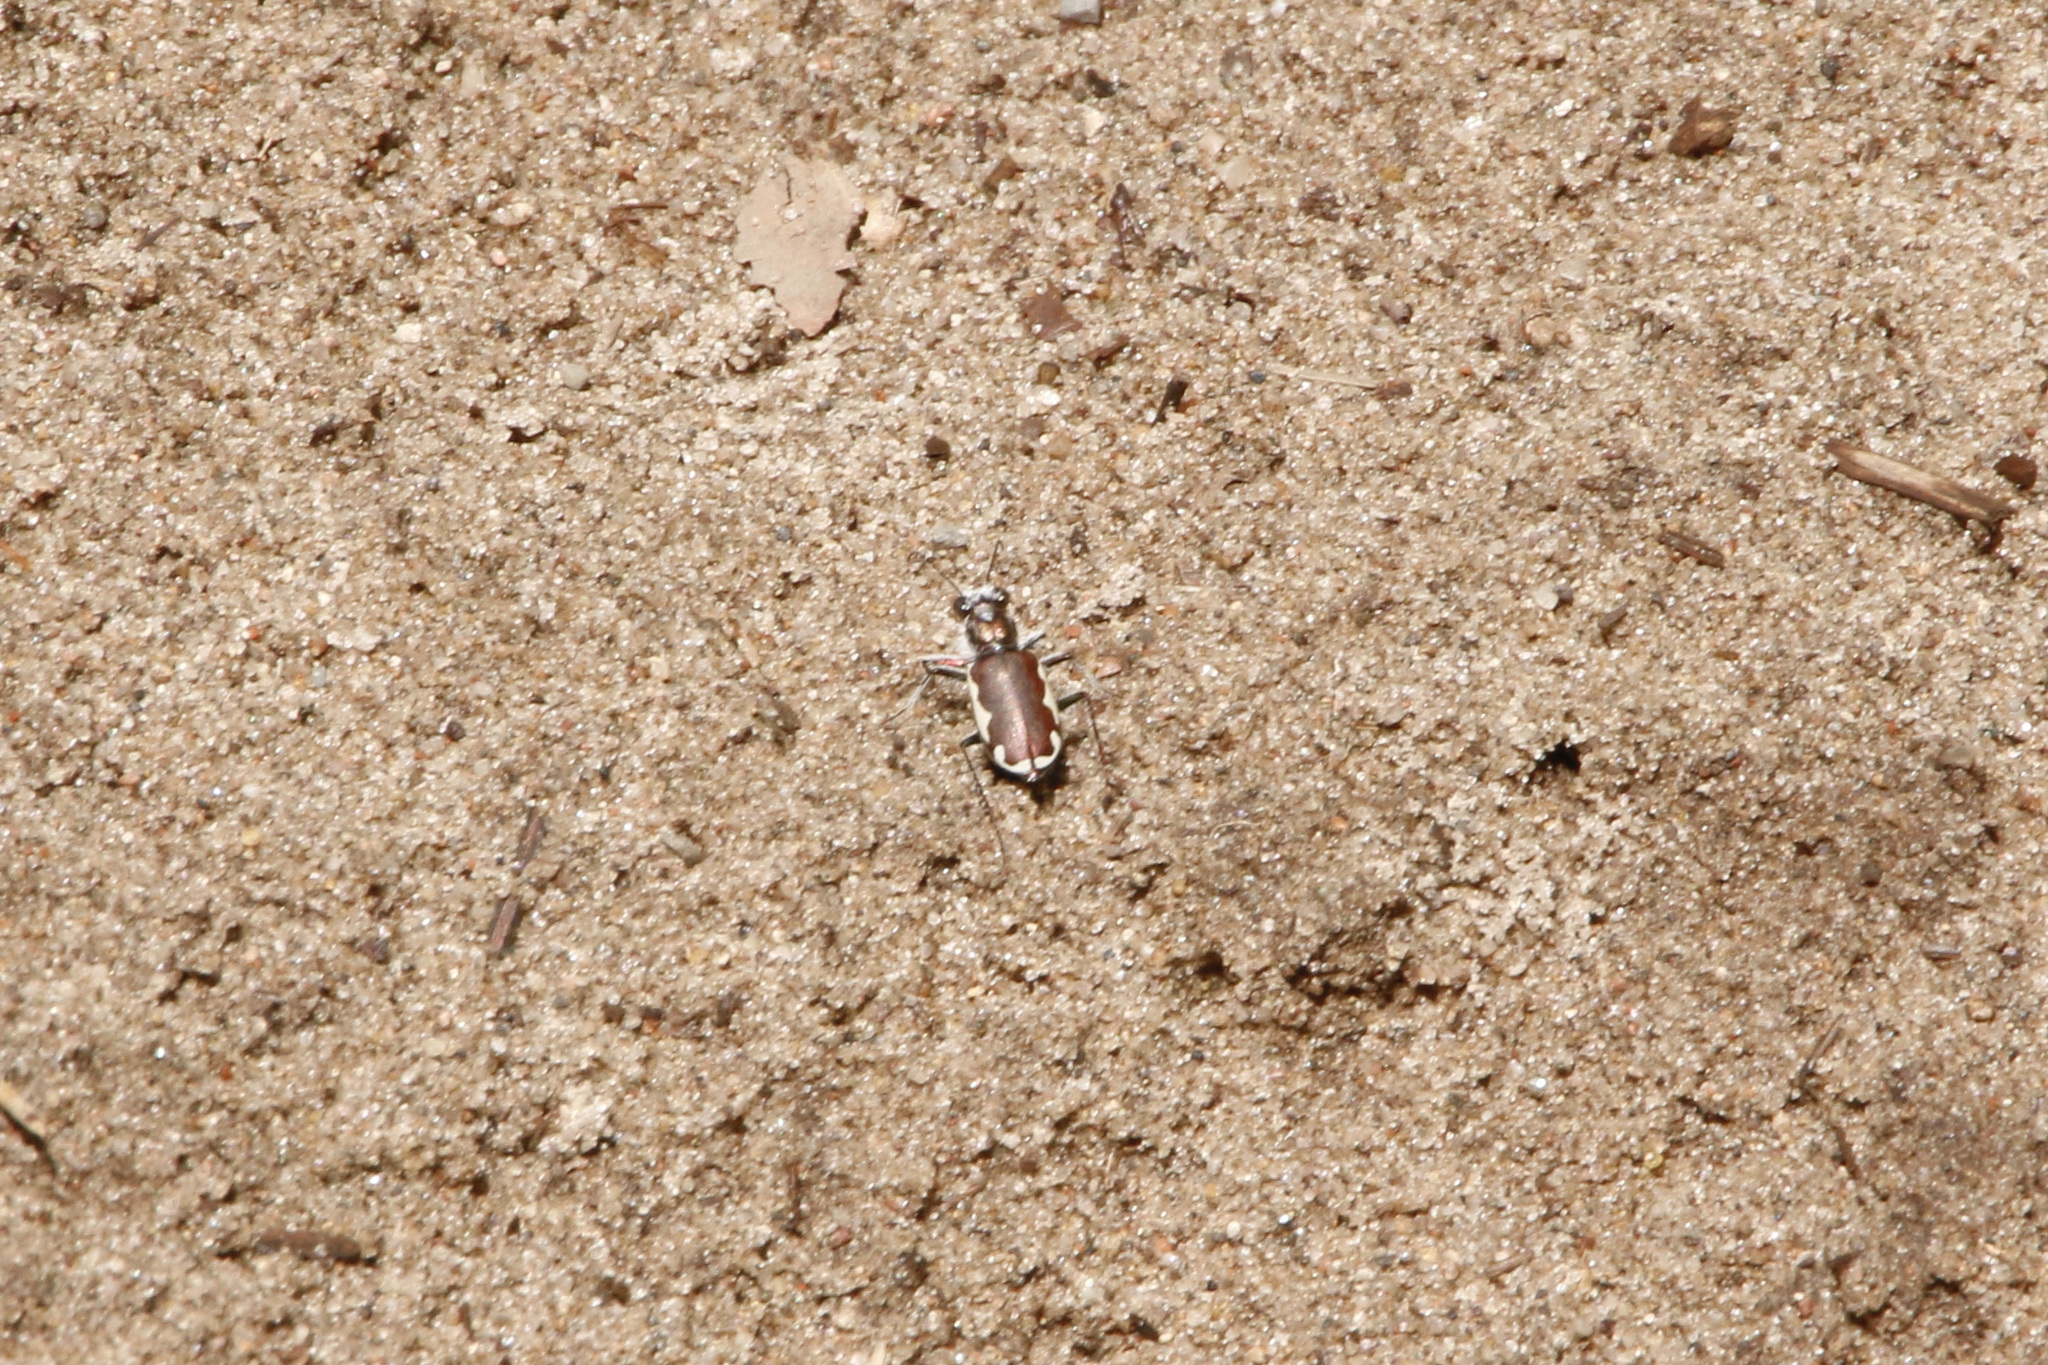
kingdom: Animalia
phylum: Arthropoda
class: Insecta
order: Coleoptera
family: Carabidae
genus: Cicindela
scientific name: Cicindela scutellaris
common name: Festive tiger beetle
